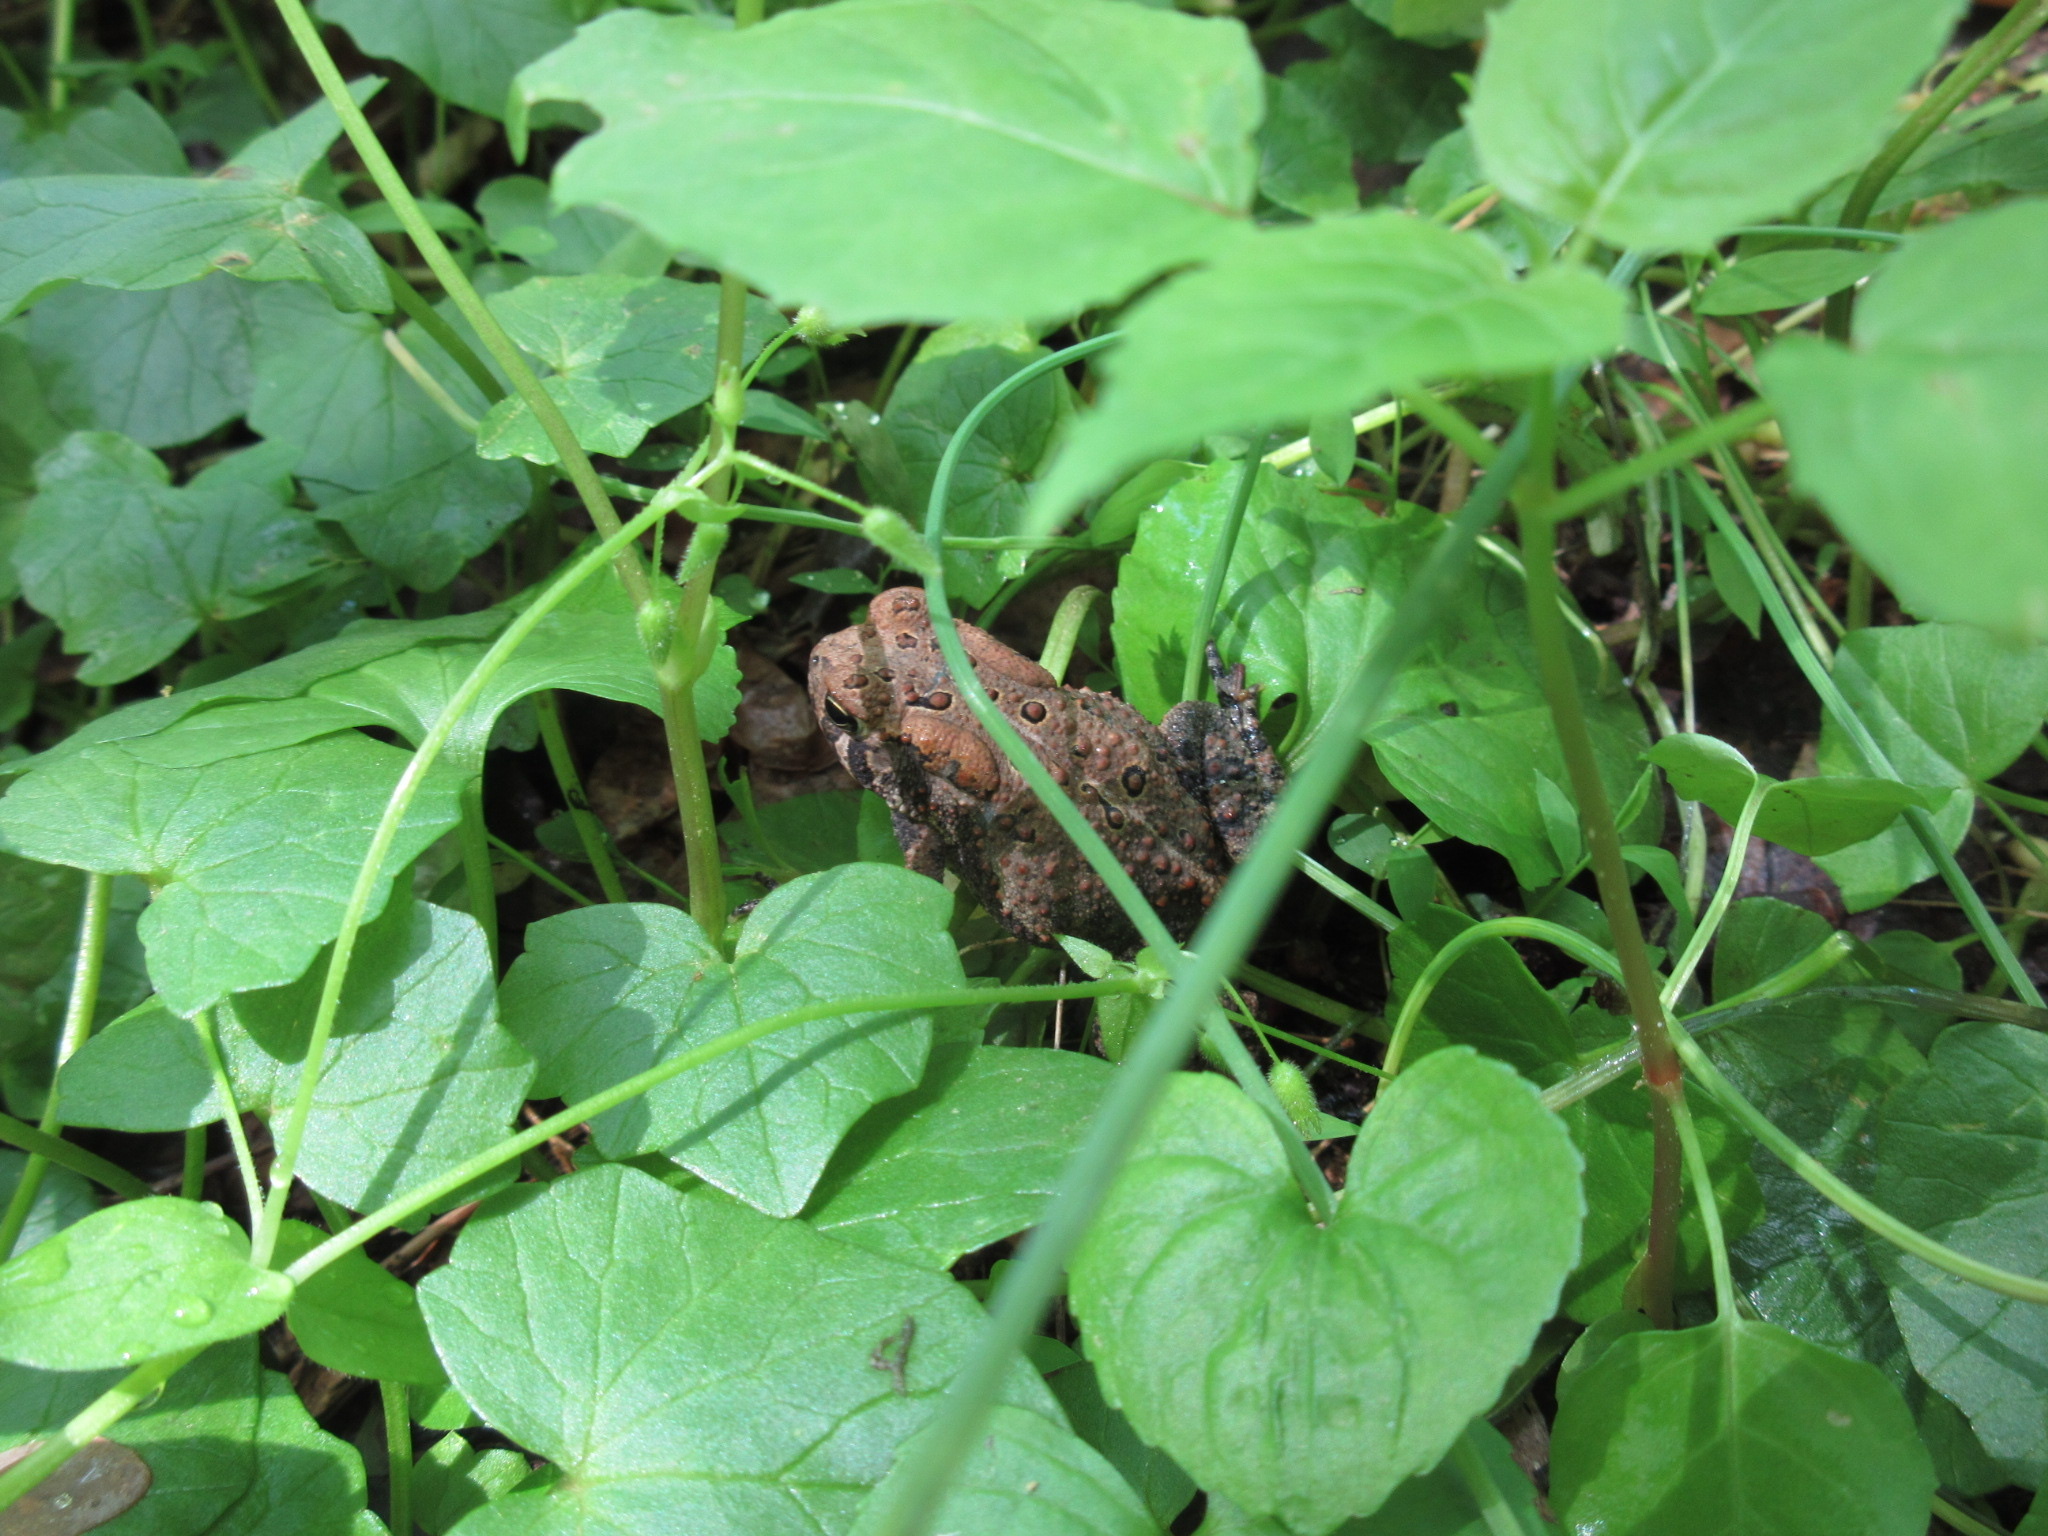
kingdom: Animalia
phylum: Chordata
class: Amphibia
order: Anura
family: Bufonidae
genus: Anaxyrus
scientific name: Anaxyrus americanus
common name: American toad
